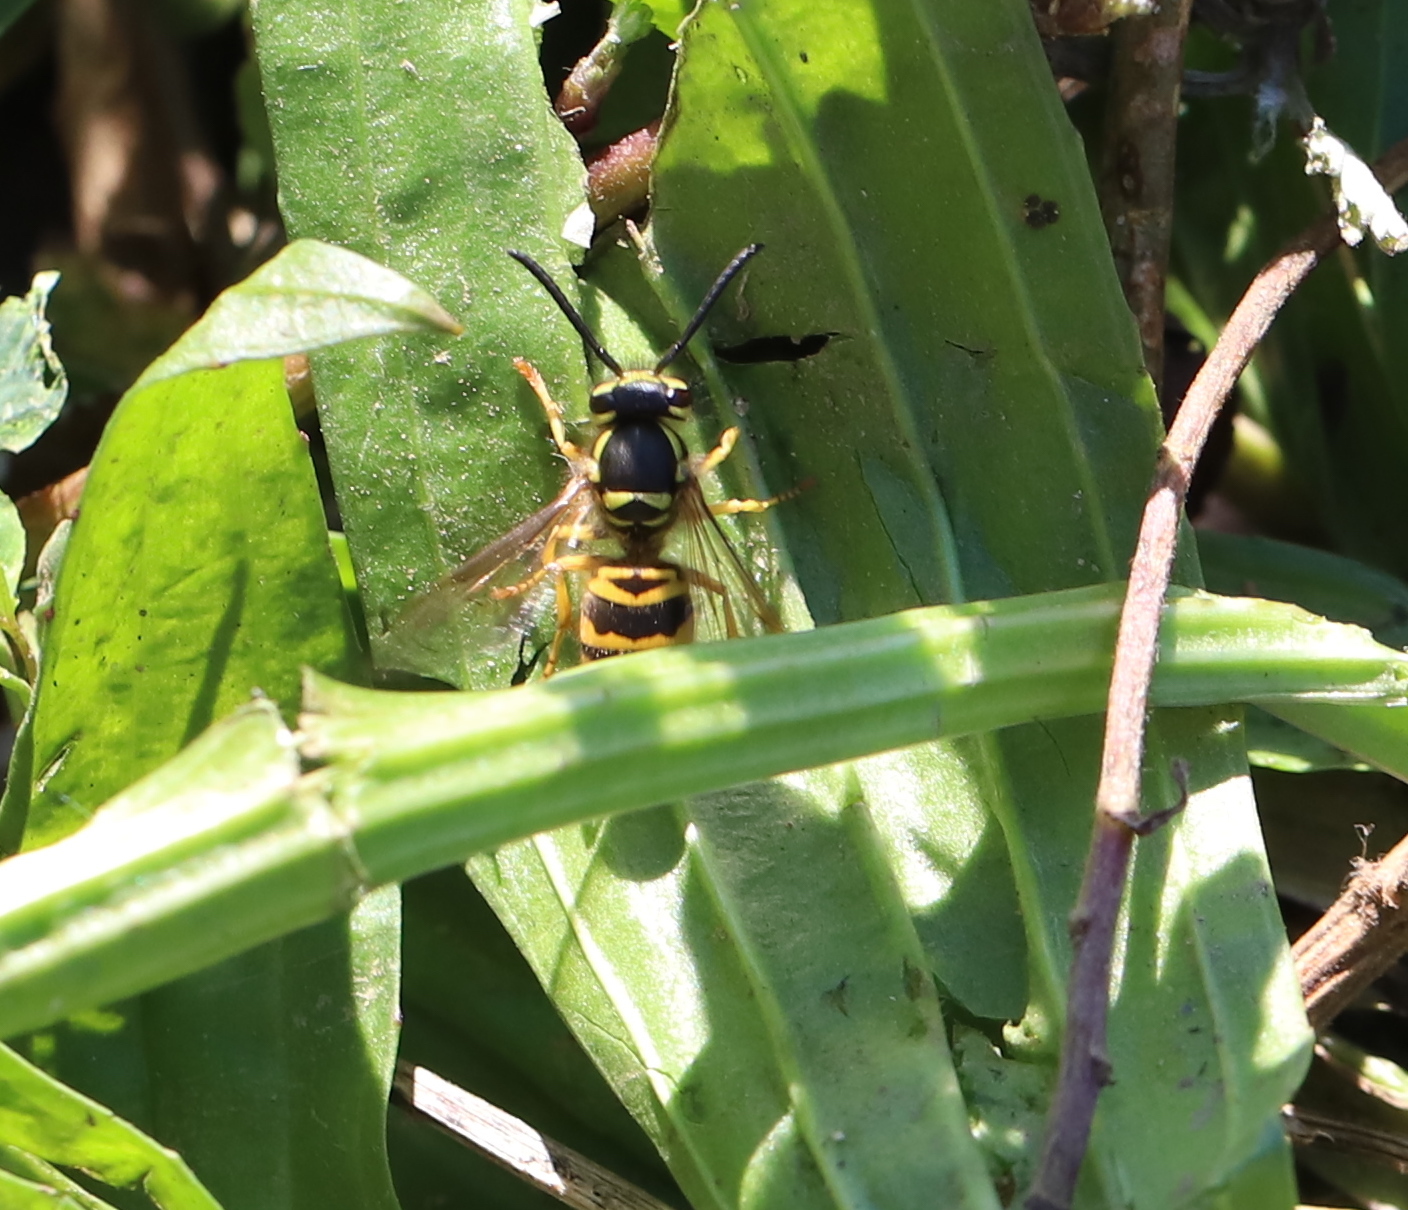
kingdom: Animalia
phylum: Arthropoda
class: Insecta
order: Hymenoptera
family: Vespidae
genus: Vespula
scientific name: Vespula maculifrons
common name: Eastern yellowjacket
